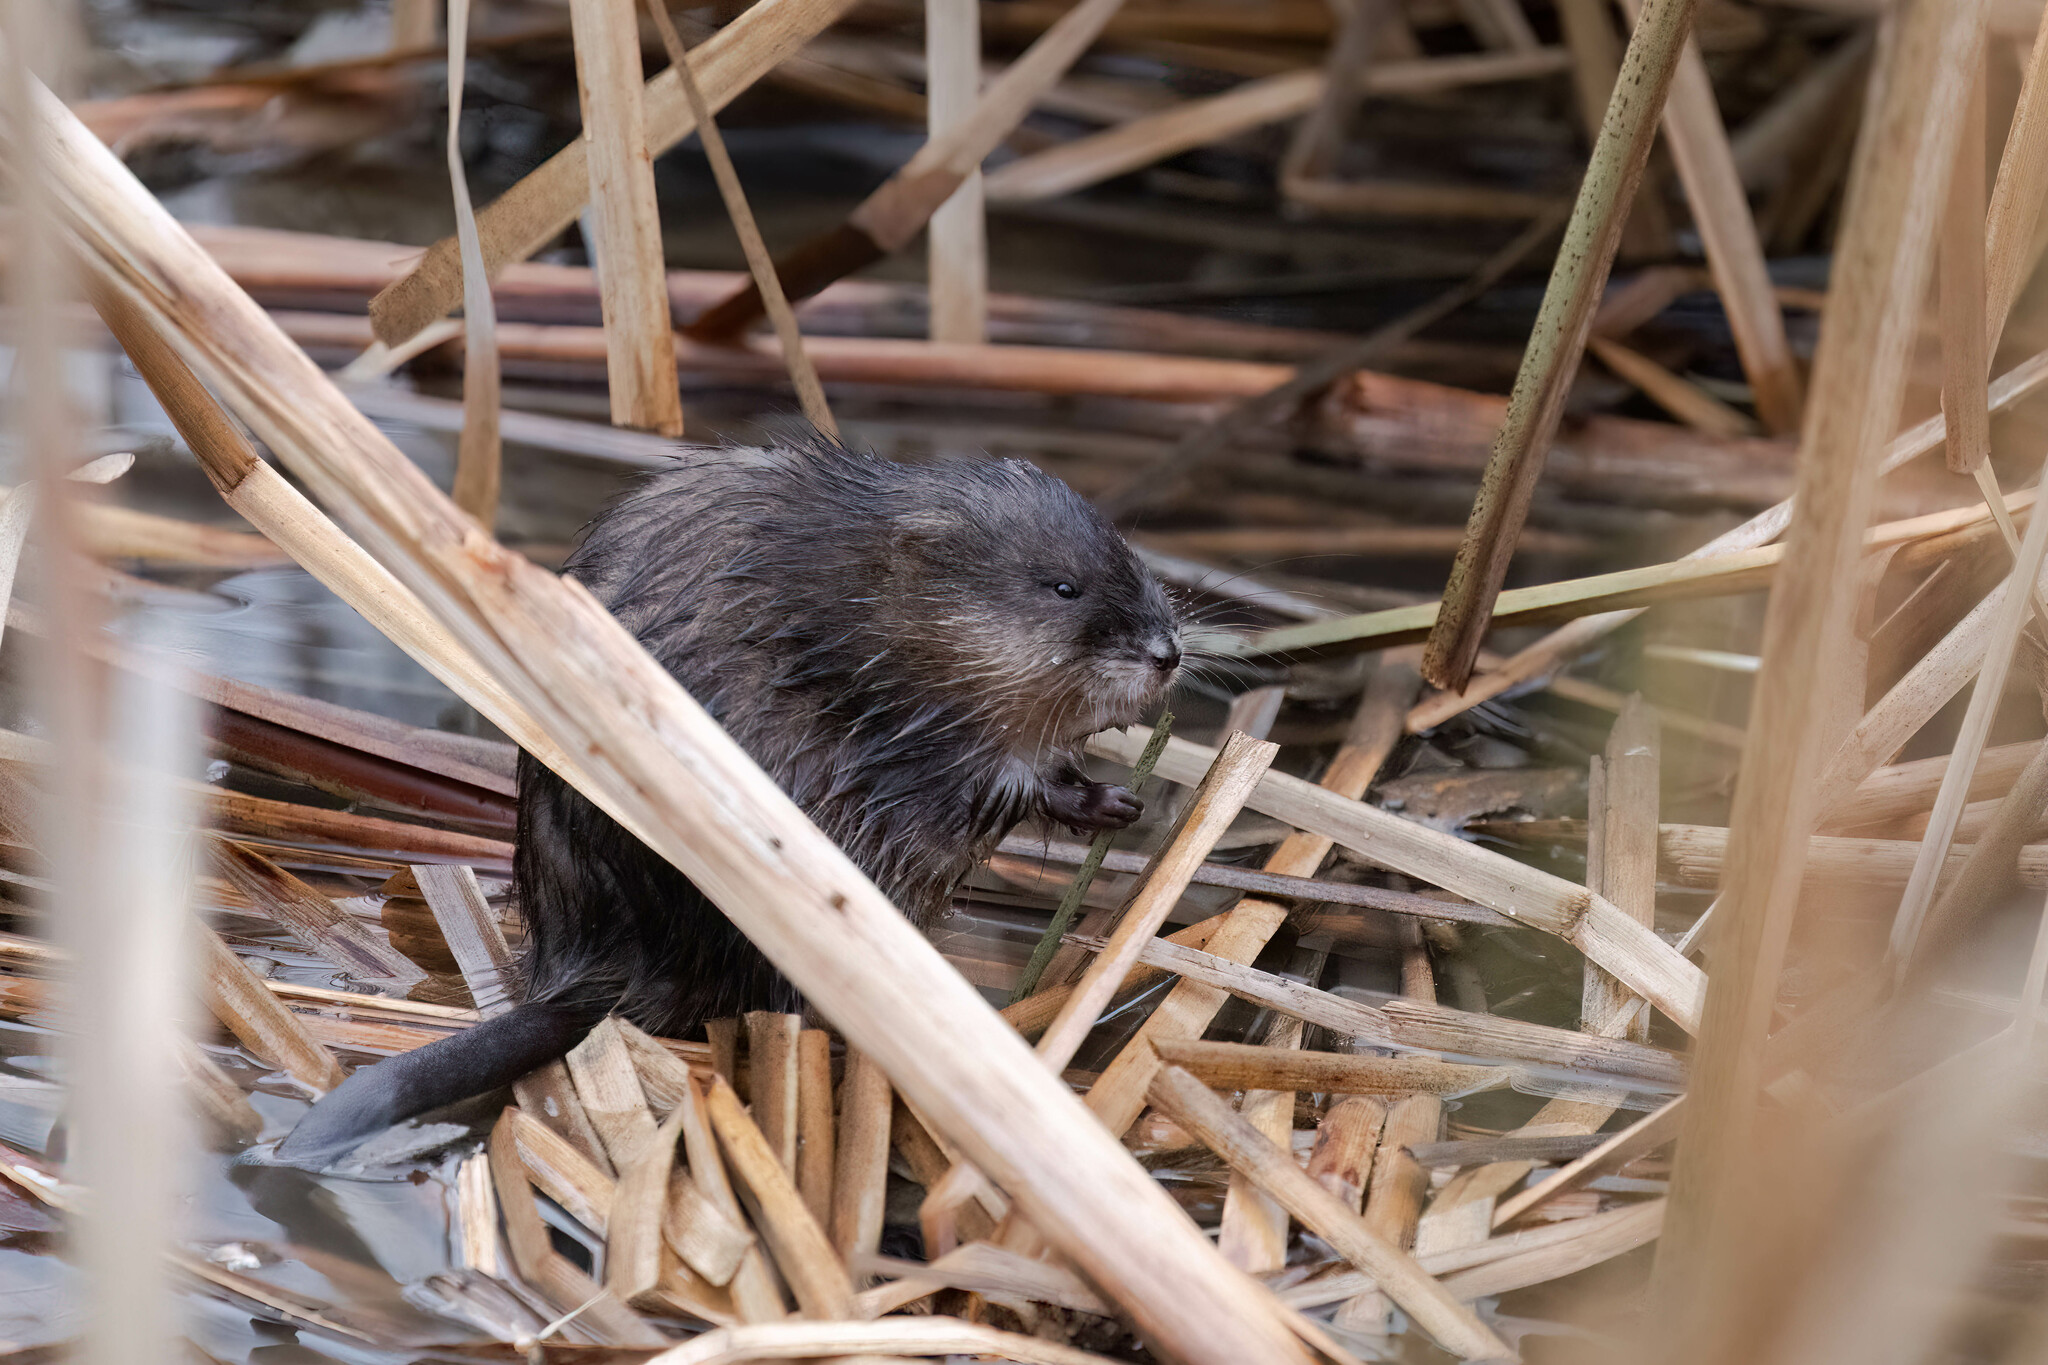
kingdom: Animalia
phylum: Chordata
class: Mammalia
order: Rodentia
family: Cricetidae
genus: Ondatra
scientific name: Ondatra zibethicus
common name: Muskrat
